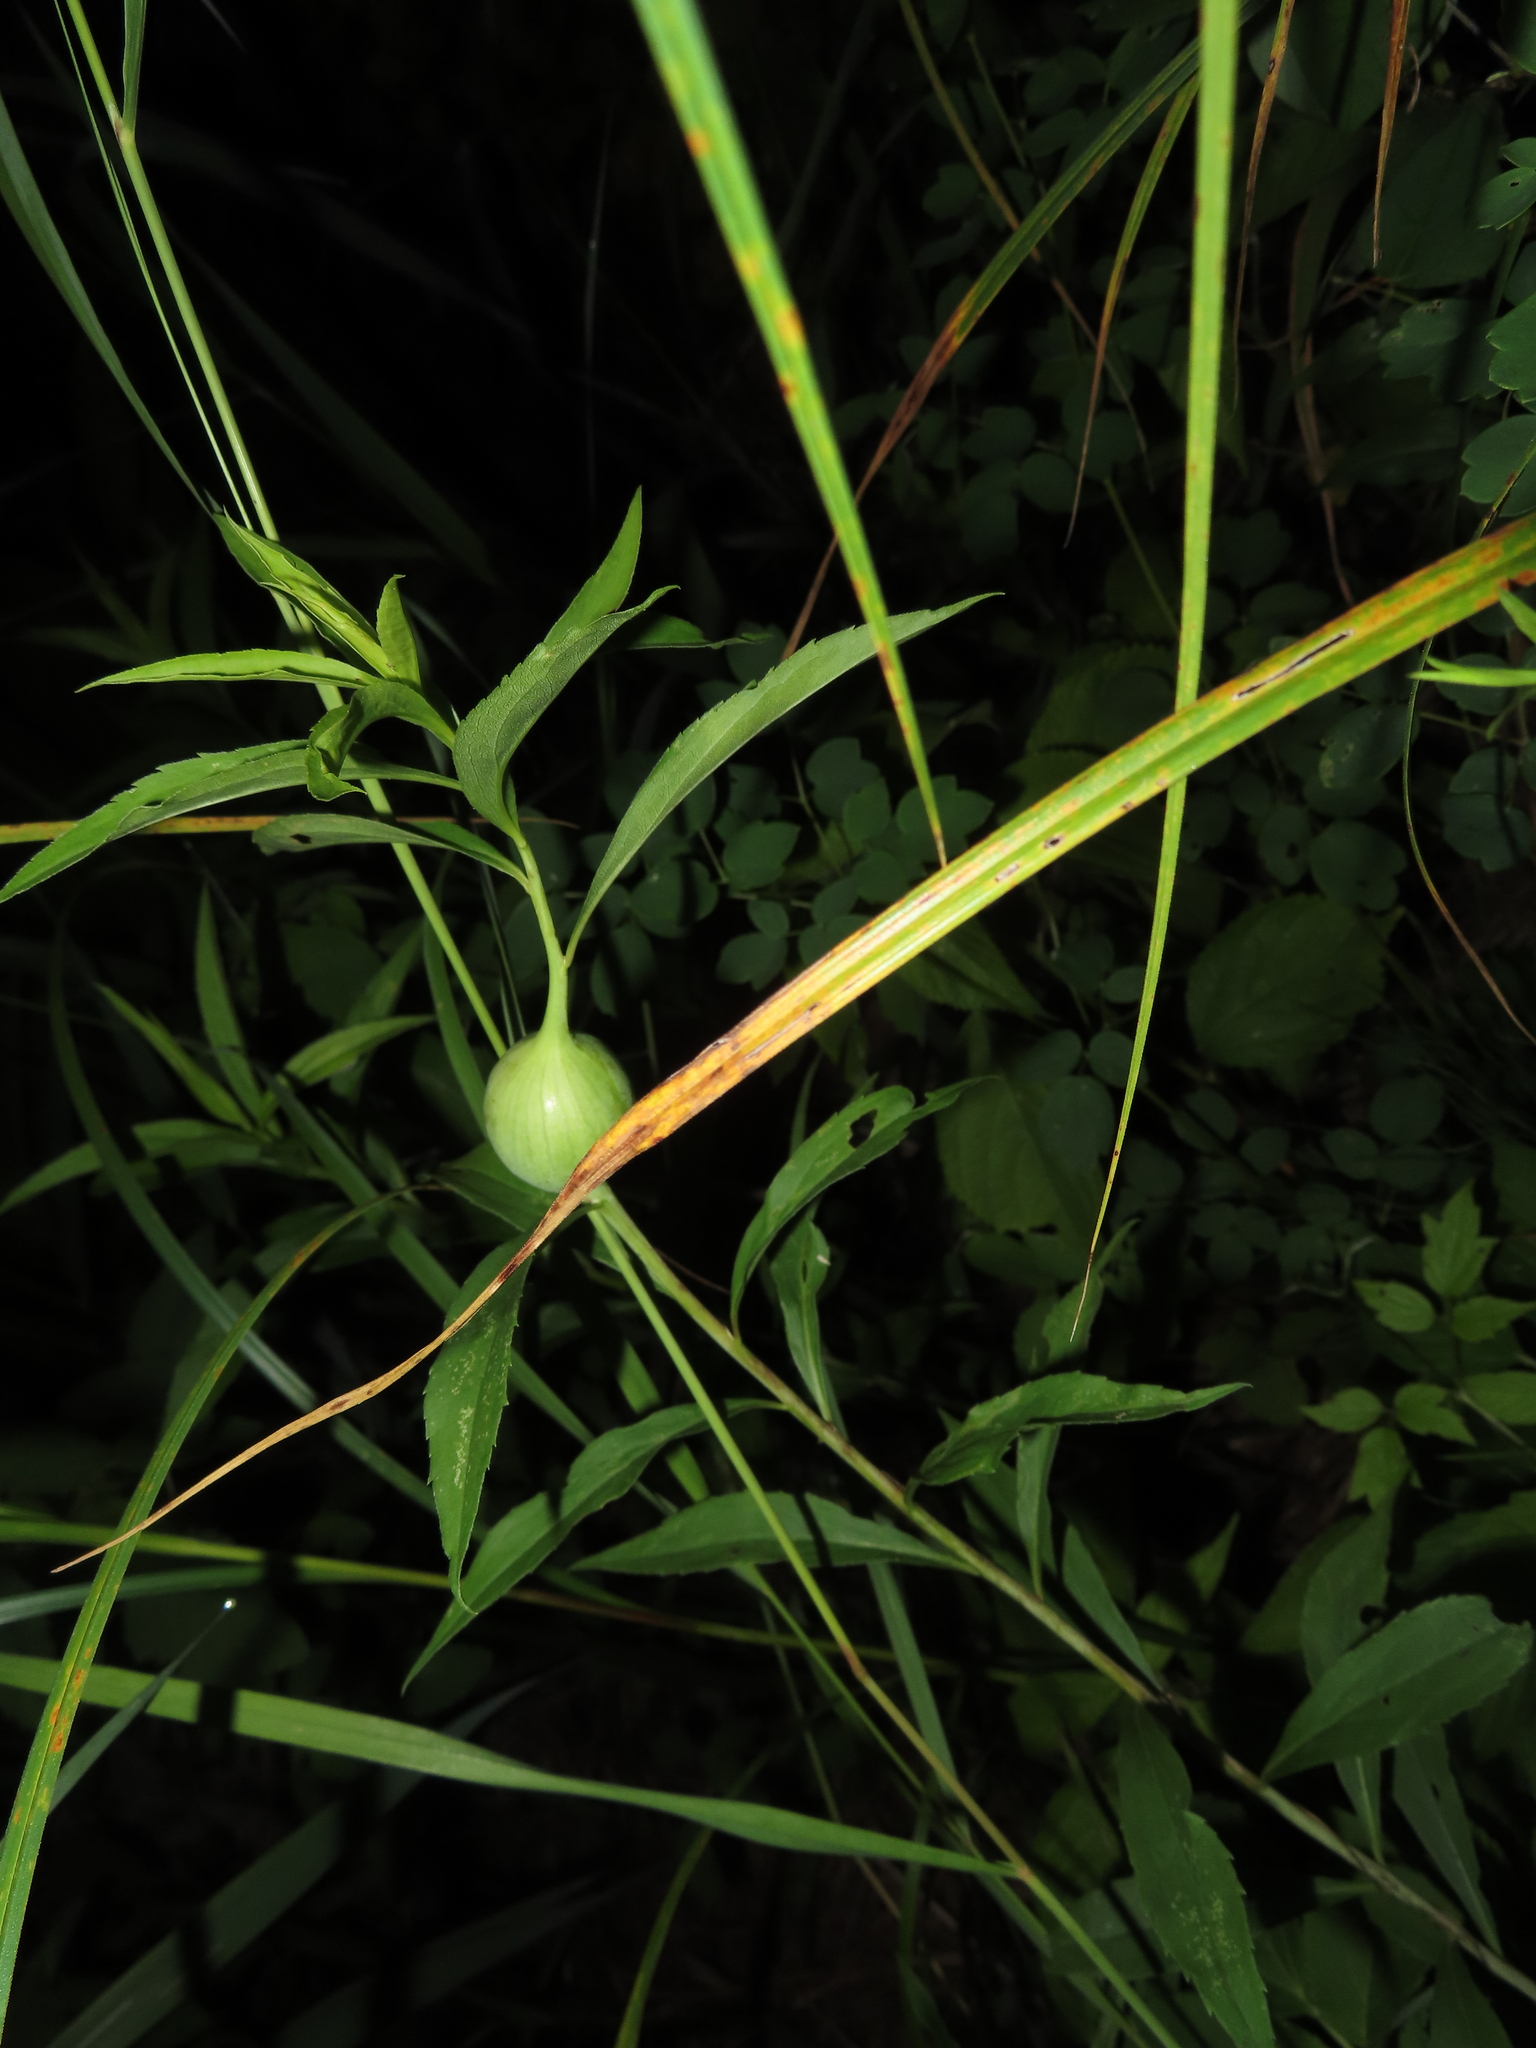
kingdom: Animalia
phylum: Arthropoda
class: Insecta
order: Diptera
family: Tephritidae
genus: Eurosta
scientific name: Eurosta solidaginis
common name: Goldenrod gall fly
